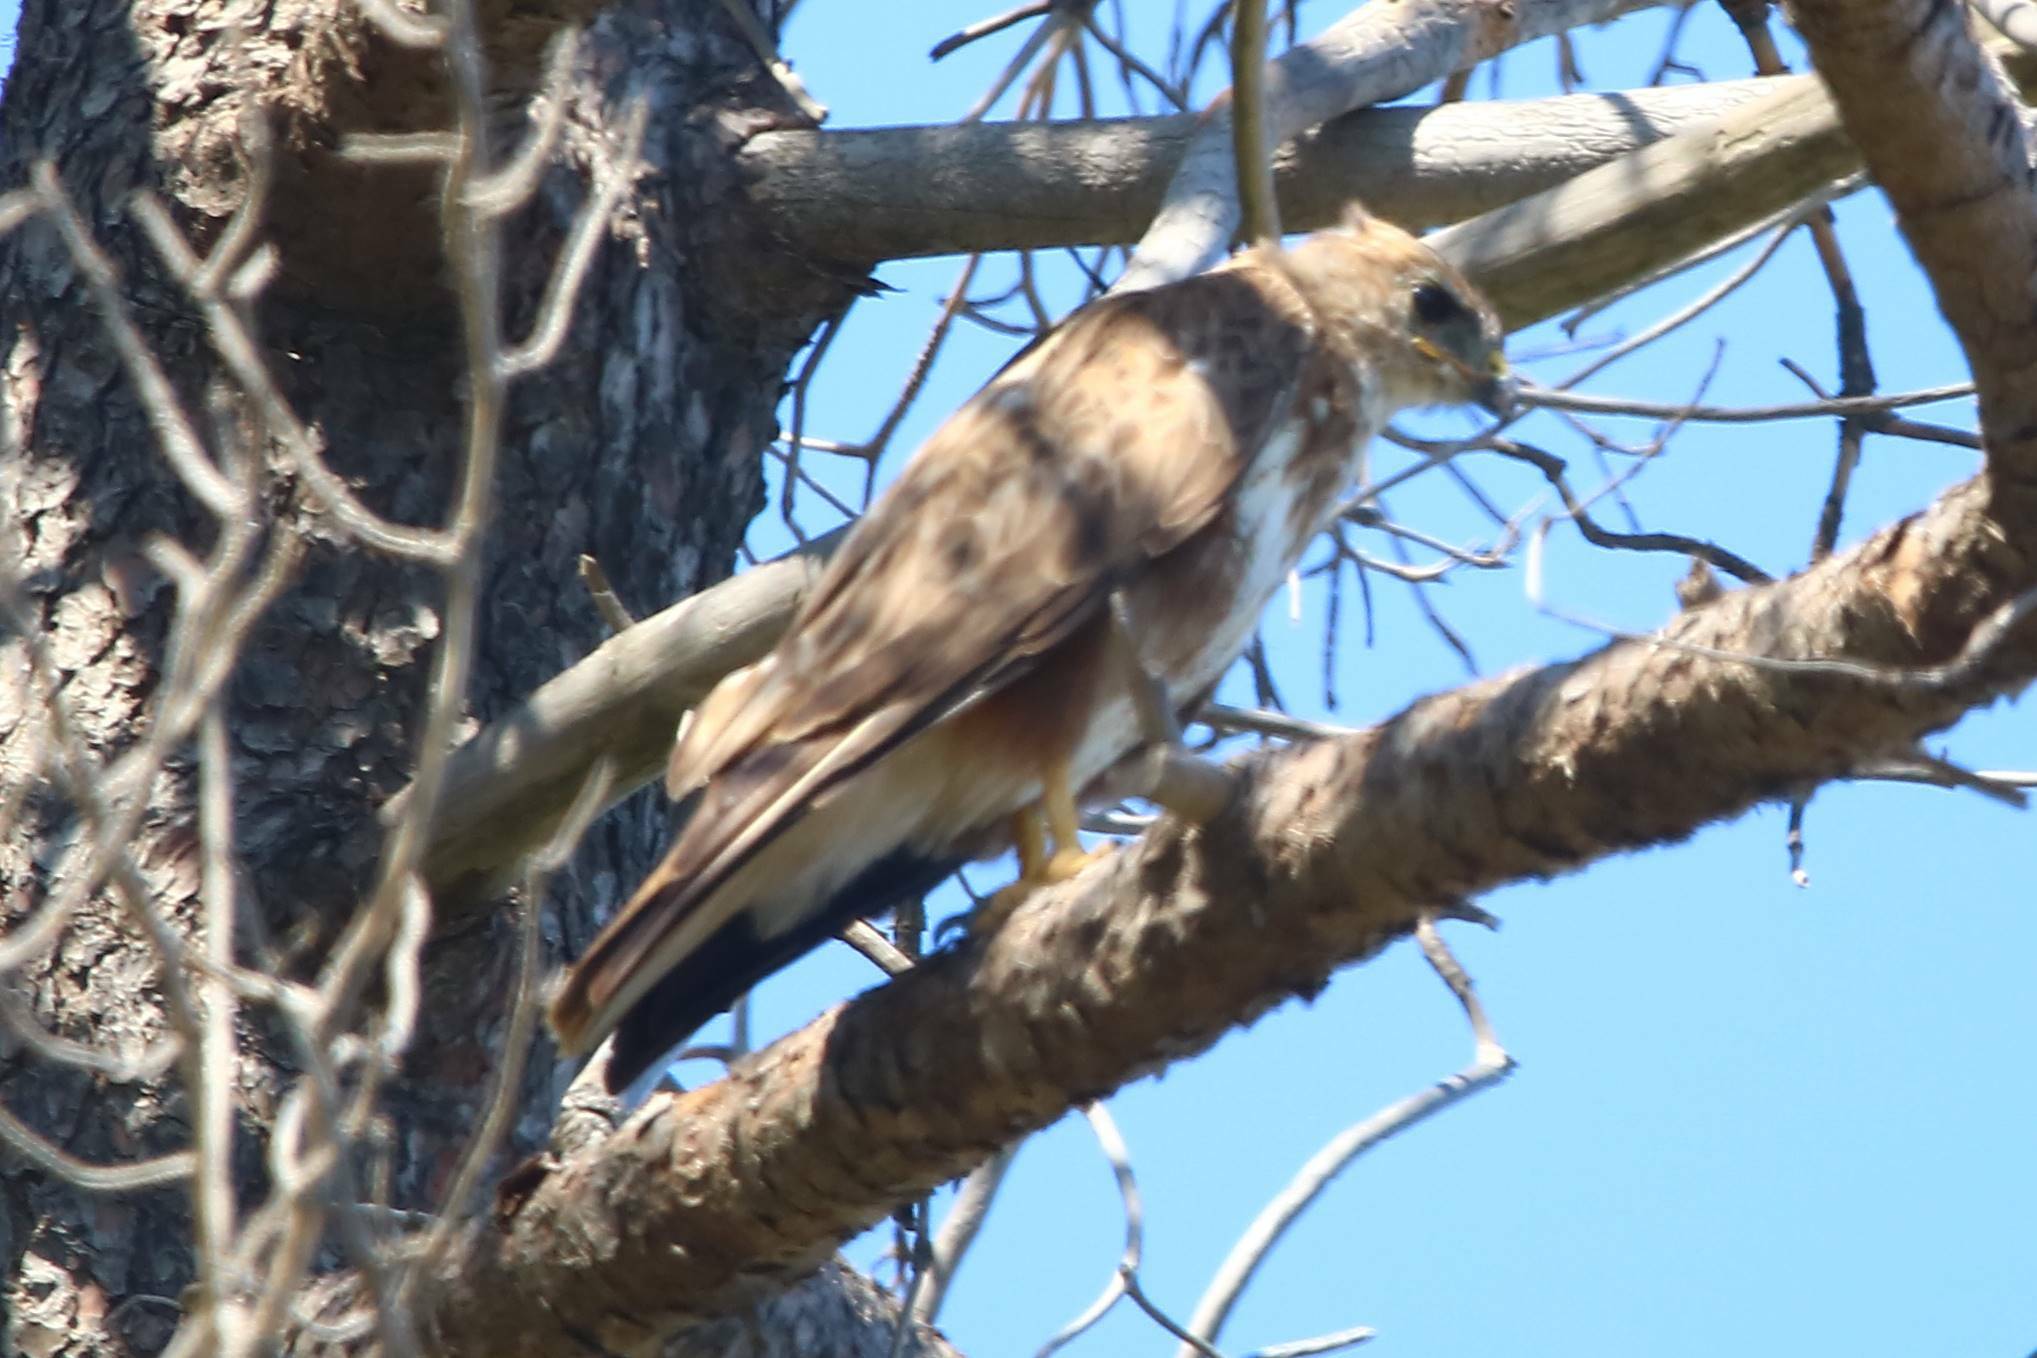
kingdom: Animalia
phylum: Chordata
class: Aves
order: Accipitriformes
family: Accipitridae
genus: Buteo
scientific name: Buteo rufinus
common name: Long-legged buzzard
